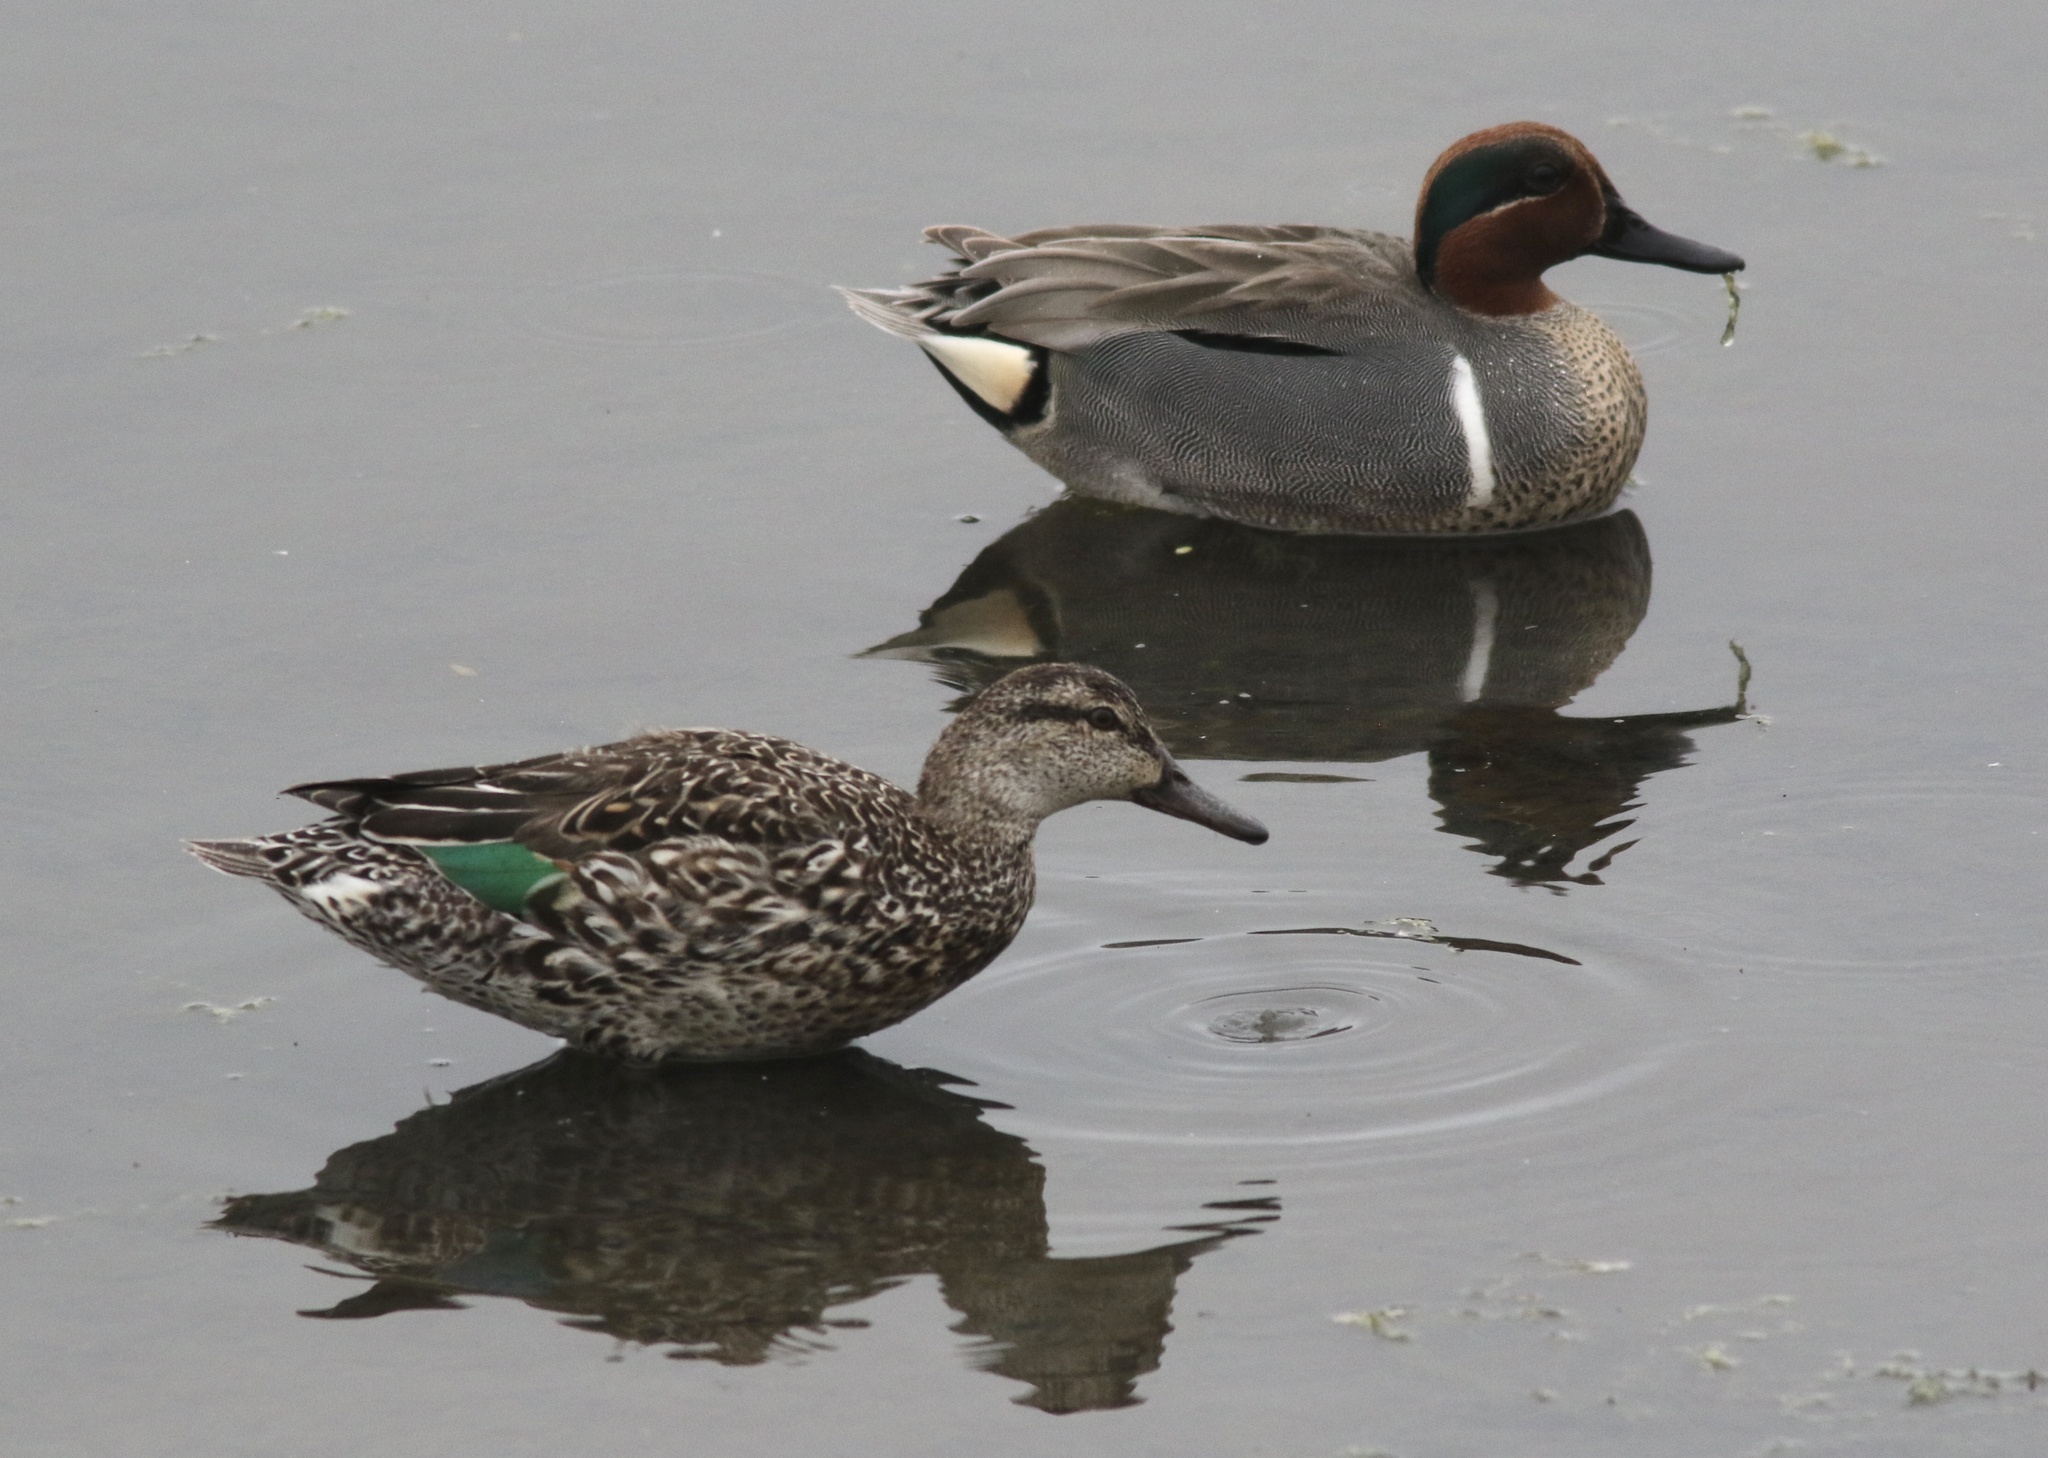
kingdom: Animalia
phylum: Chordata
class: Aves
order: Anseriformes
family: Anatidae
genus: Anas
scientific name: Anas crecca
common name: Eurasian teal
